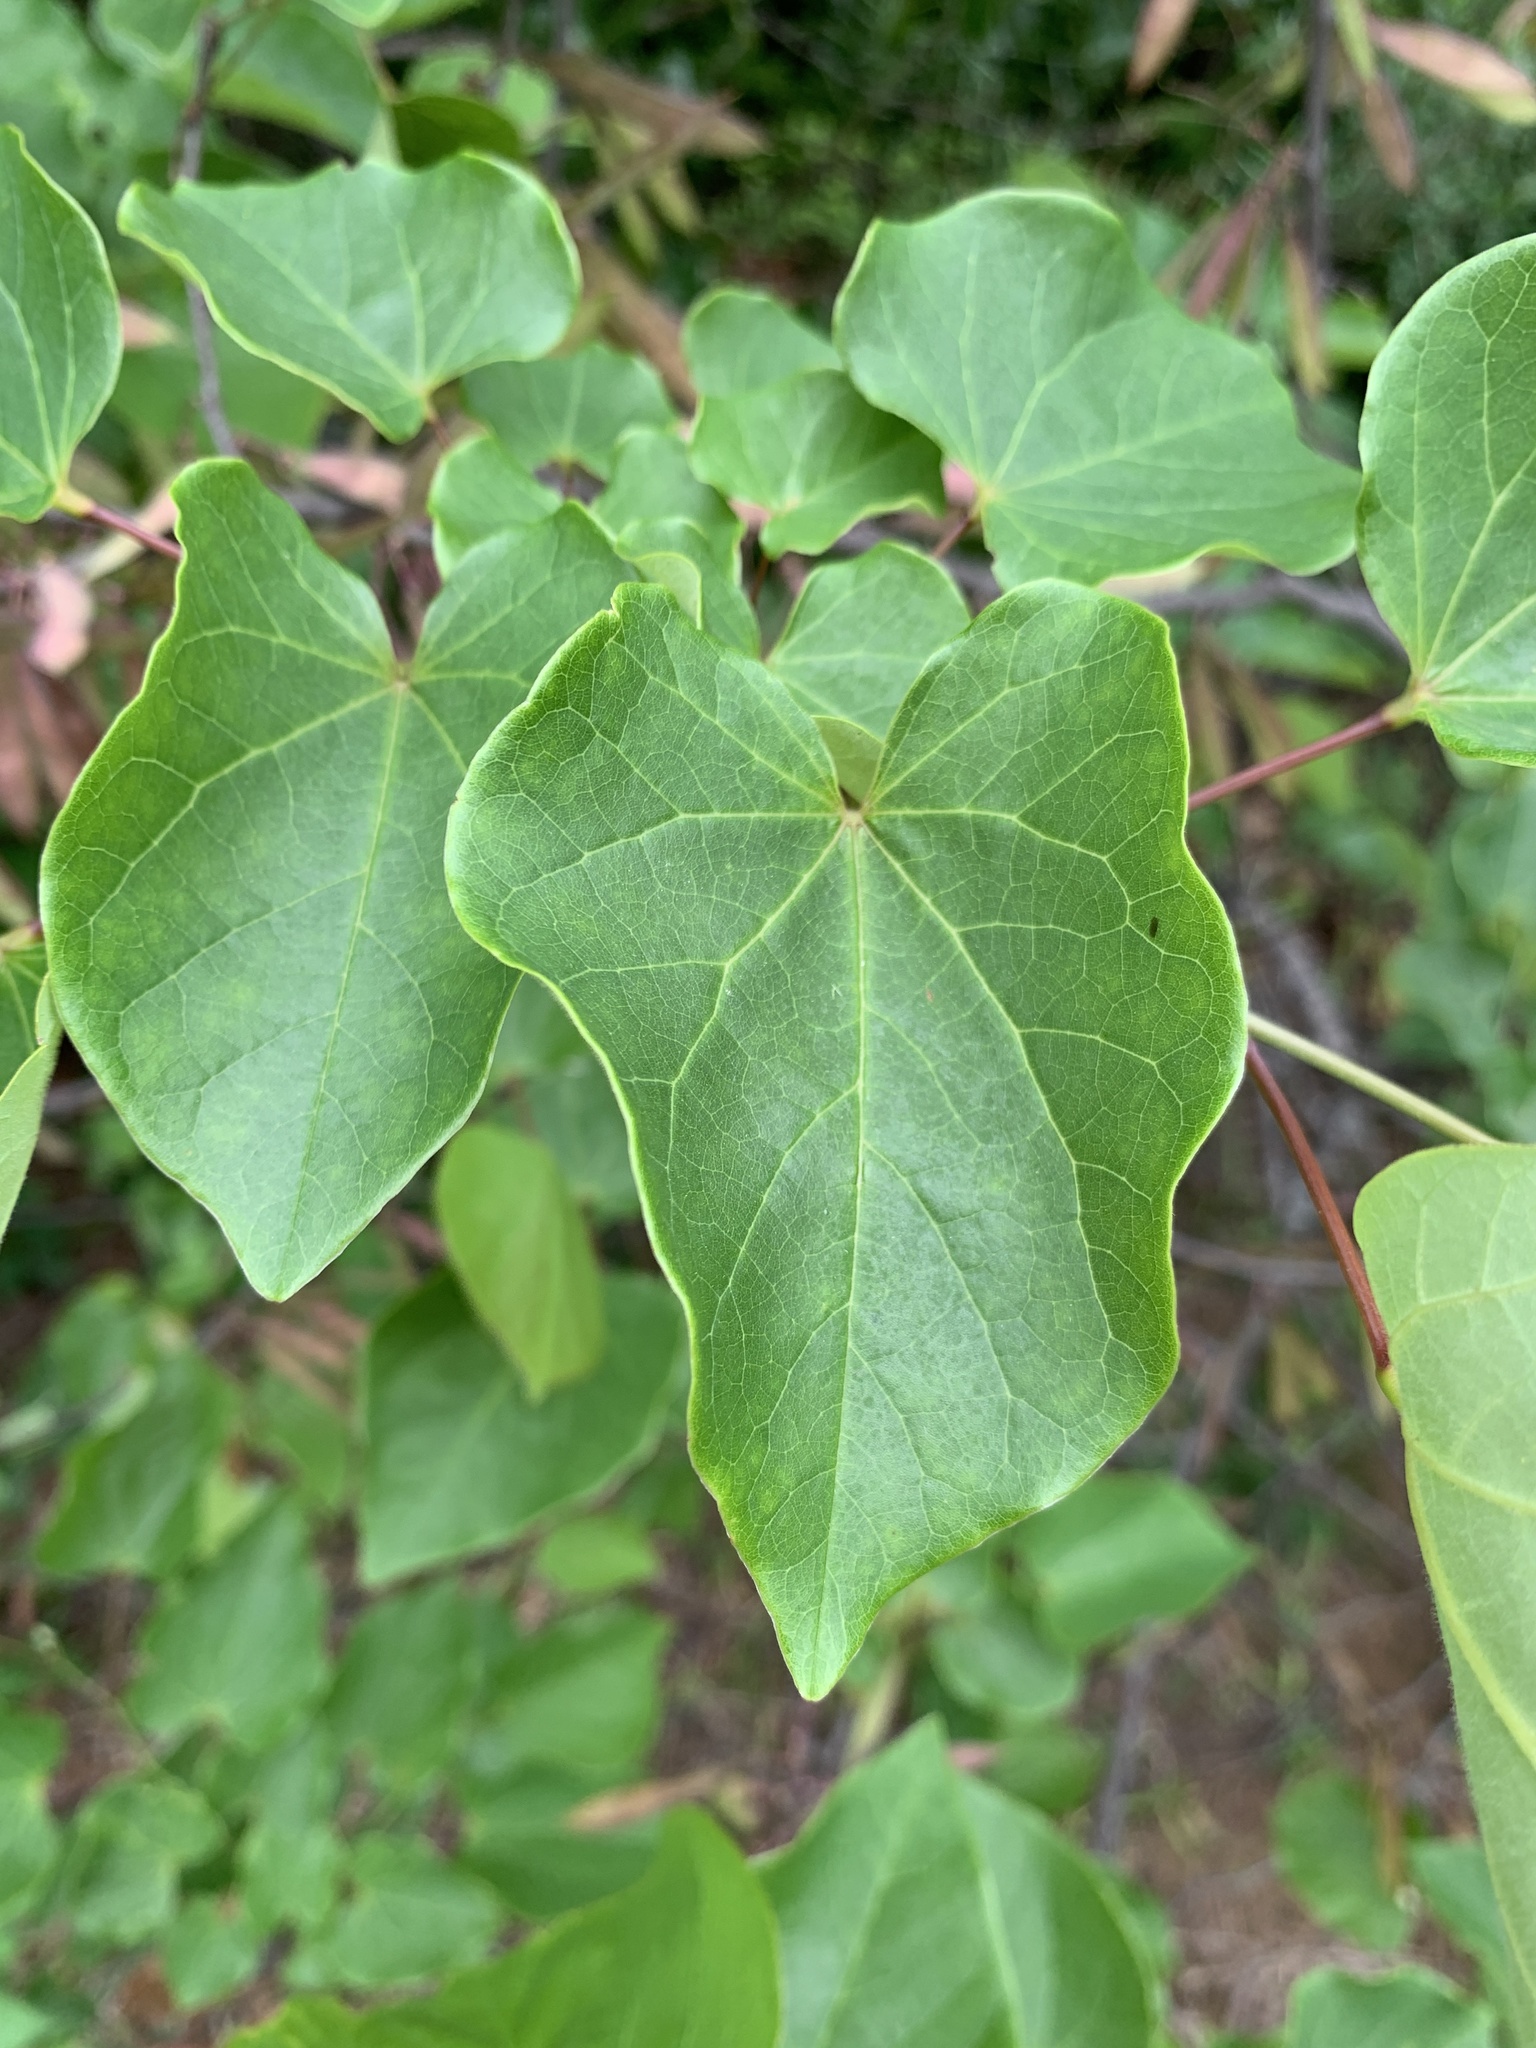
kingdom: Plantae
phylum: Tracheophyta
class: Magnoliopsida
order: Fabales
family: Fabaceae
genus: Cercis
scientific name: Cercis canadensis
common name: Eastern redbud
